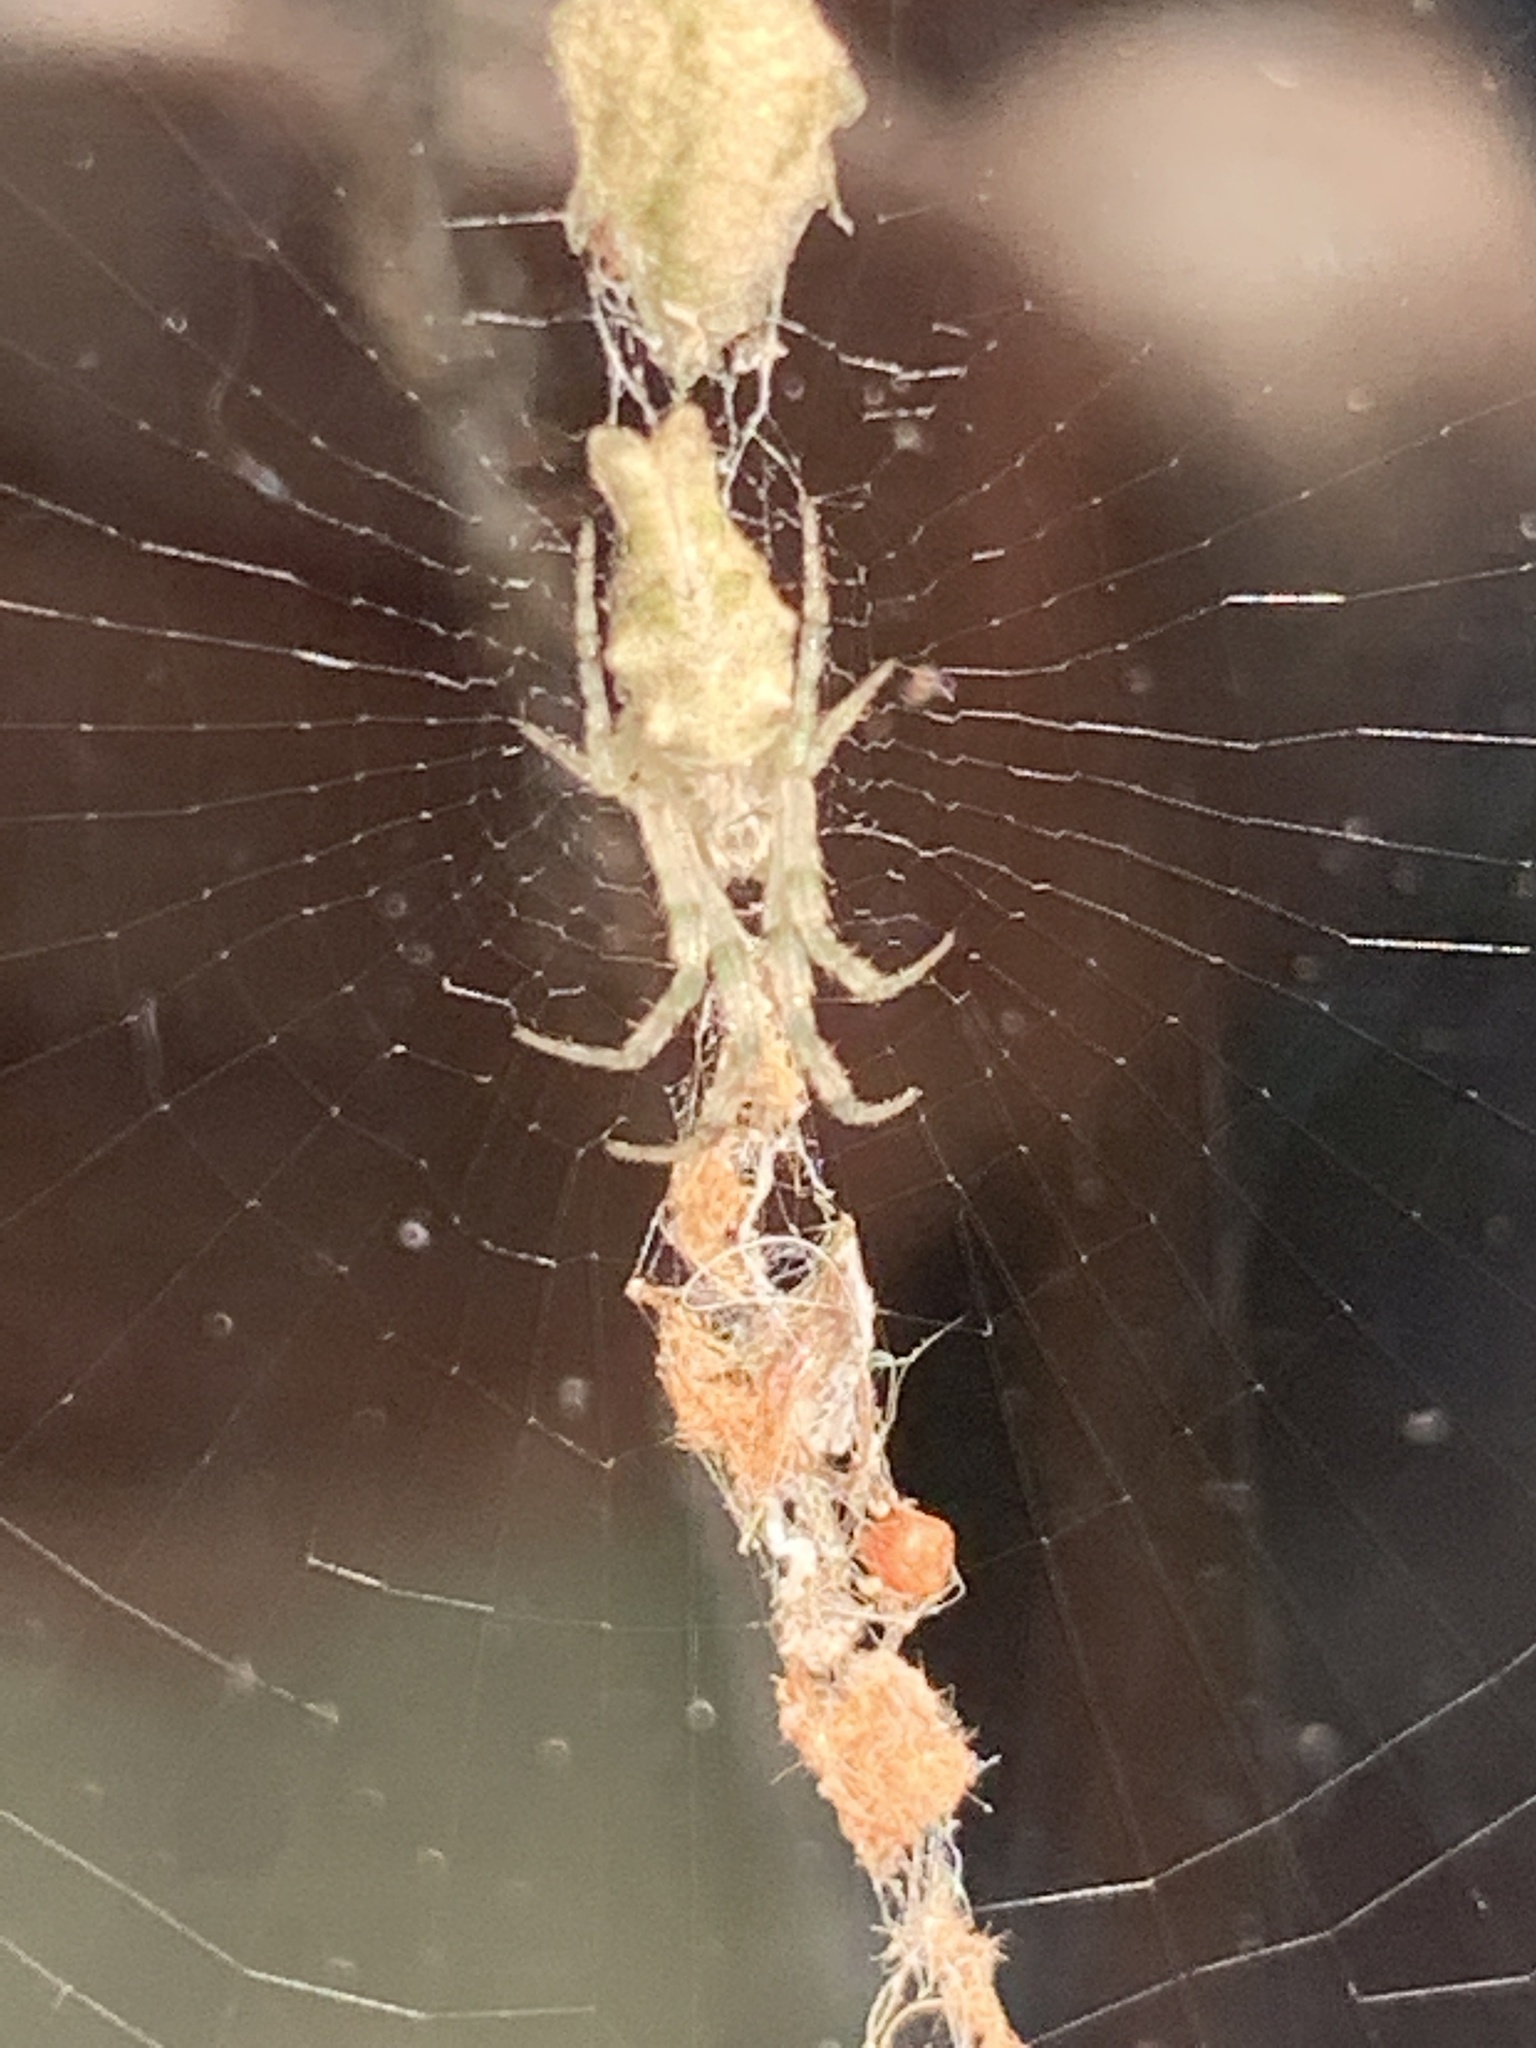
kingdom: Animalia
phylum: Arthropoda
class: Arachnida
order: Araneae
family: Araneidae
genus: Allocyclosa
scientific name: Allocyclosa bifurca
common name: Orb weavers
